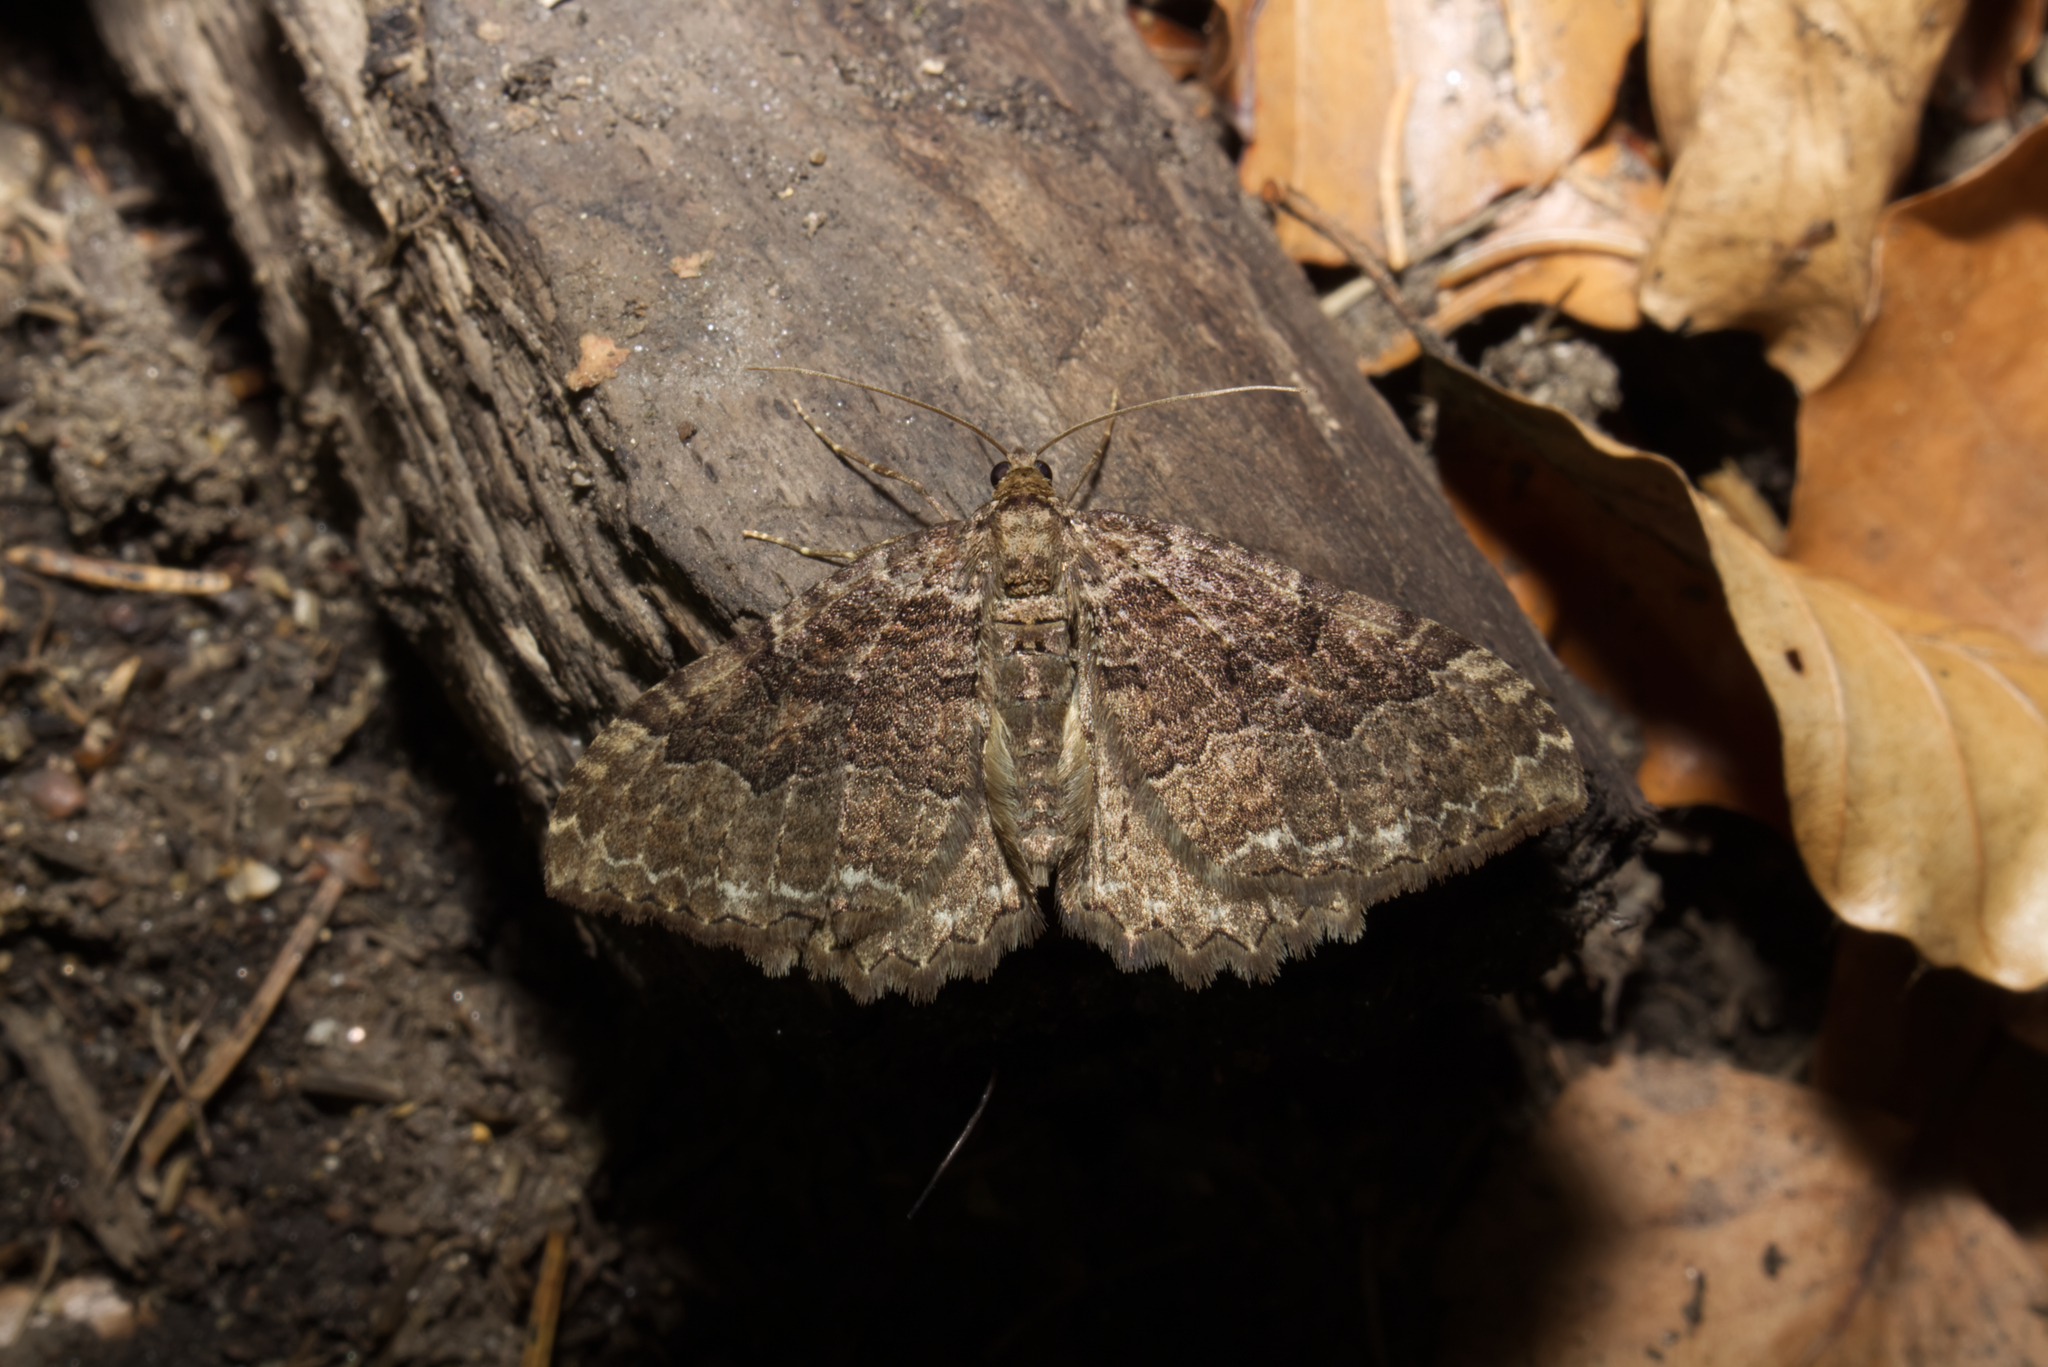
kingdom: Animalia
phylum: Arthropoda
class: Insecta
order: Lepidoptera
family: Geometridae
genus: Rheumaptera
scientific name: Rheumaptera Hydria cervinalis
